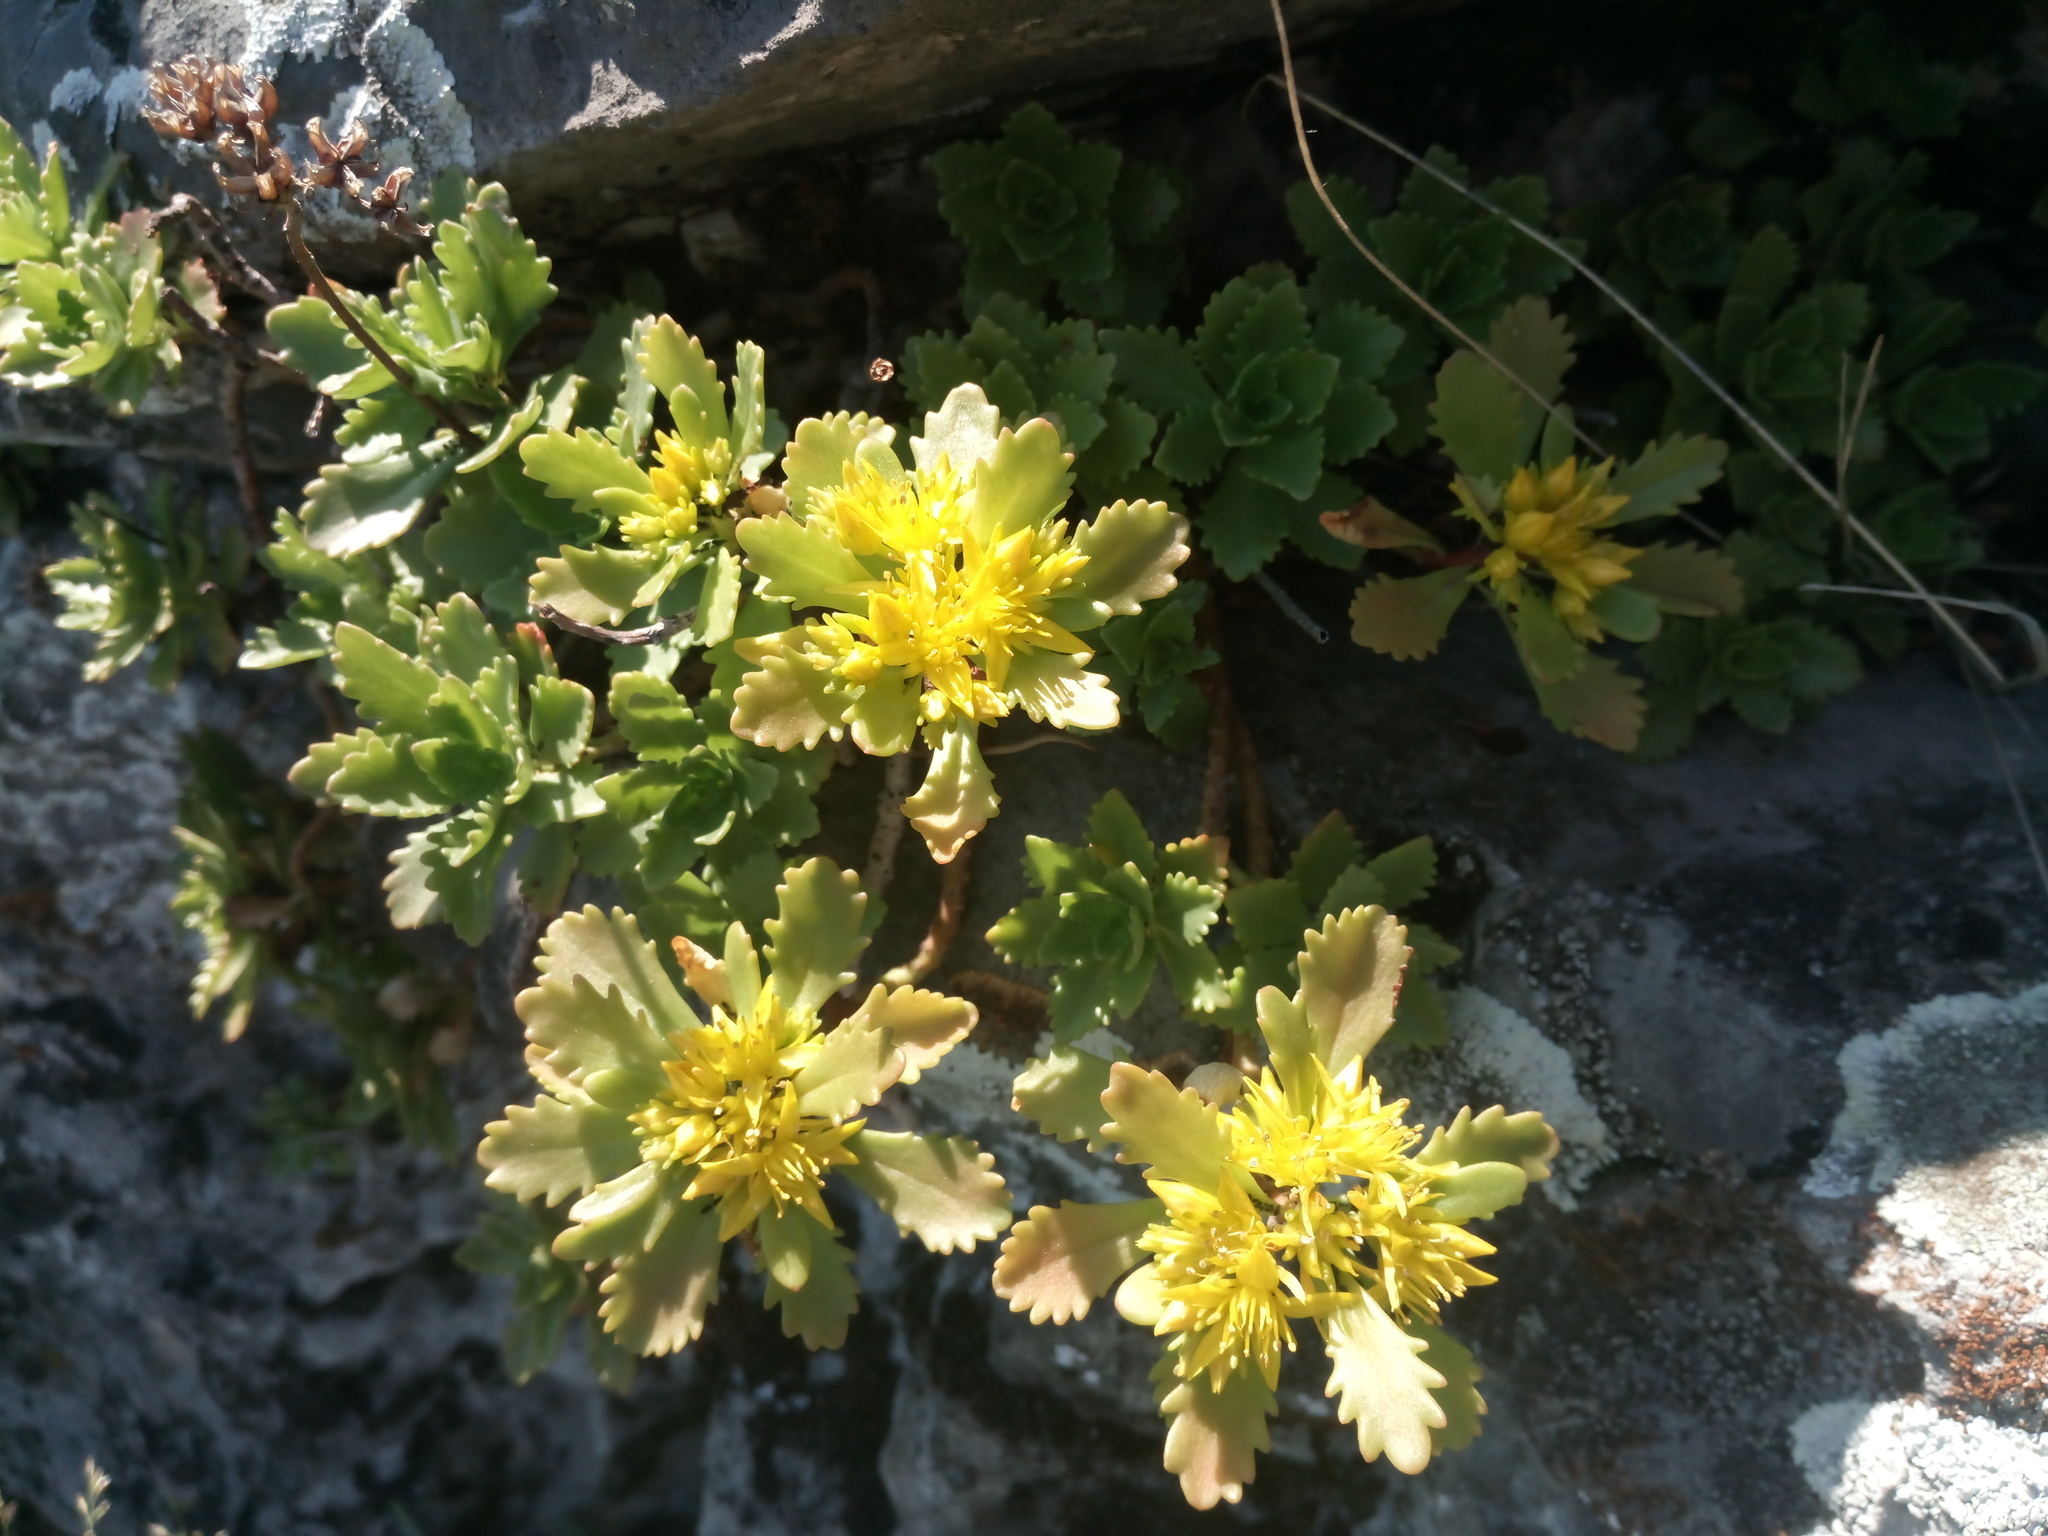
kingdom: Plantae
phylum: Tracheophyta
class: Magnoliopsida
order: Saxifragales
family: Crassulaceae
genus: Phedimus
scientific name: Phedimus hybridus
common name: Hybrid stonecrop
